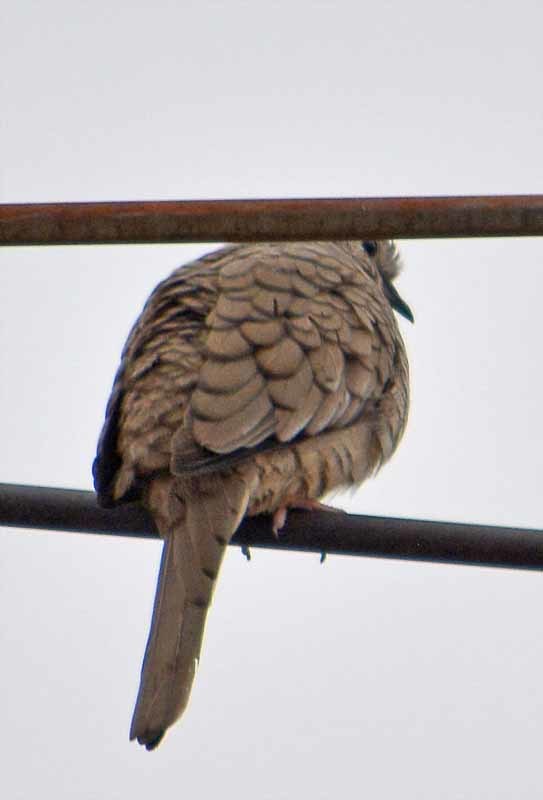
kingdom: Animalia
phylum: Chordata
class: Aves
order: Columbiformes
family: Columbidae
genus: Columbina
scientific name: Columbina inca
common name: Inca dove
